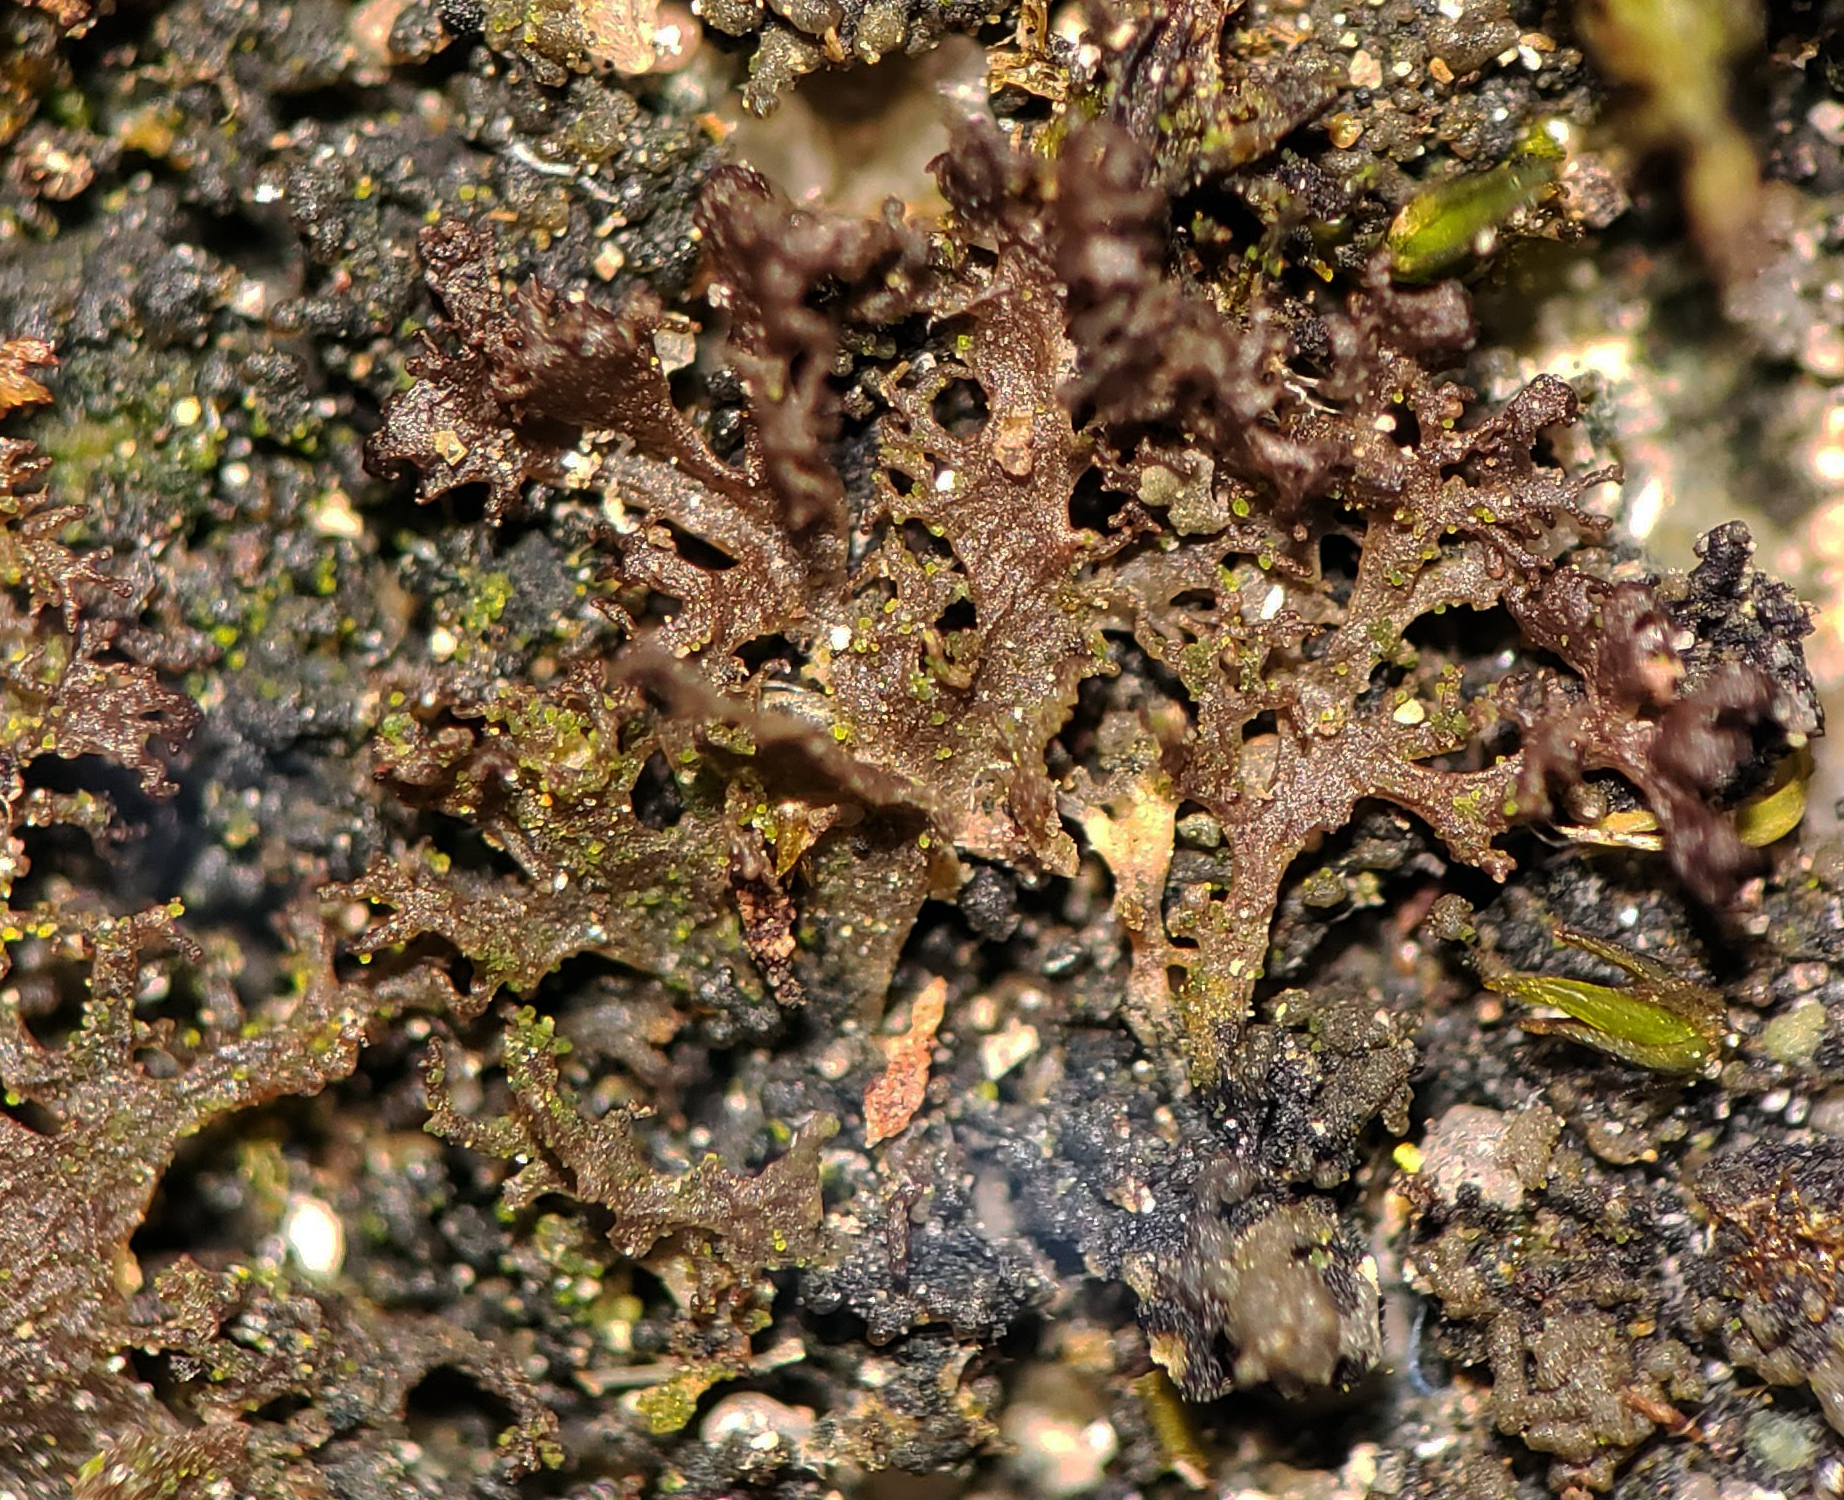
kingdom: Fungi
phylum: Ascomycota
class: Lecanoromycetes
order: Peltigerales
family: Collemataceae
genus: Scytinium
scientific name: Scytinium lichenoides
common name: Tattered jellyskin lichen
